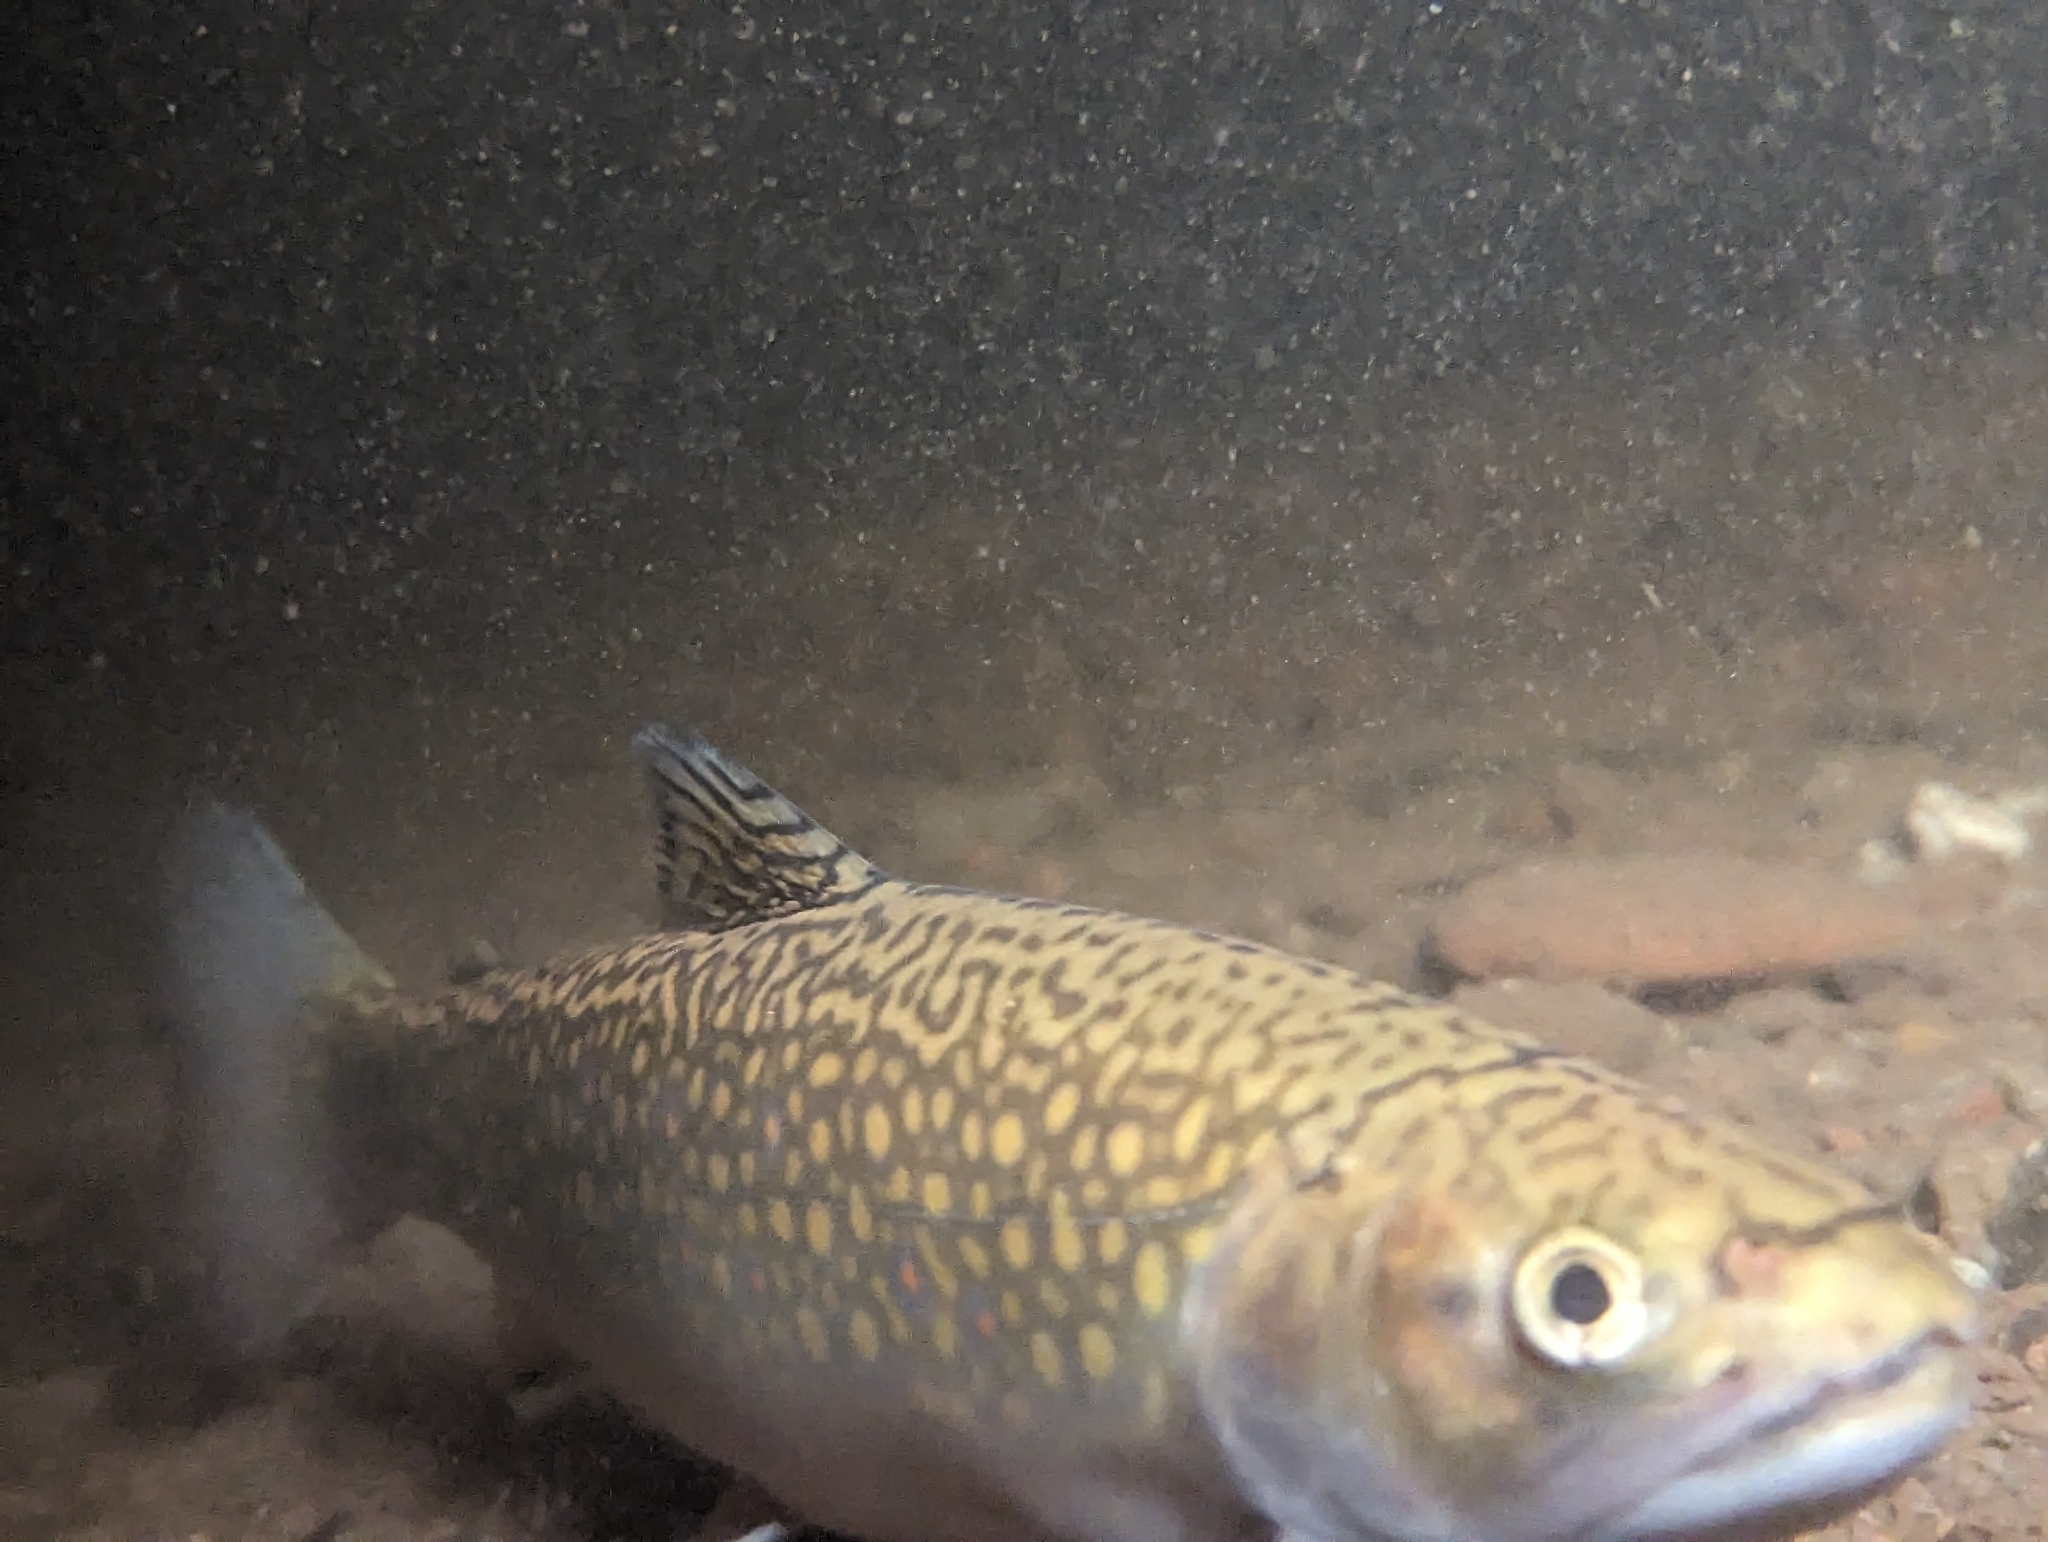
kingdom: Animalia
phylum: Chordata
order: Salmoniformes
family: Salmonidae
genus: Salvelinus
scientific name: Salvelinus fontinalis
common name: Brook trout
